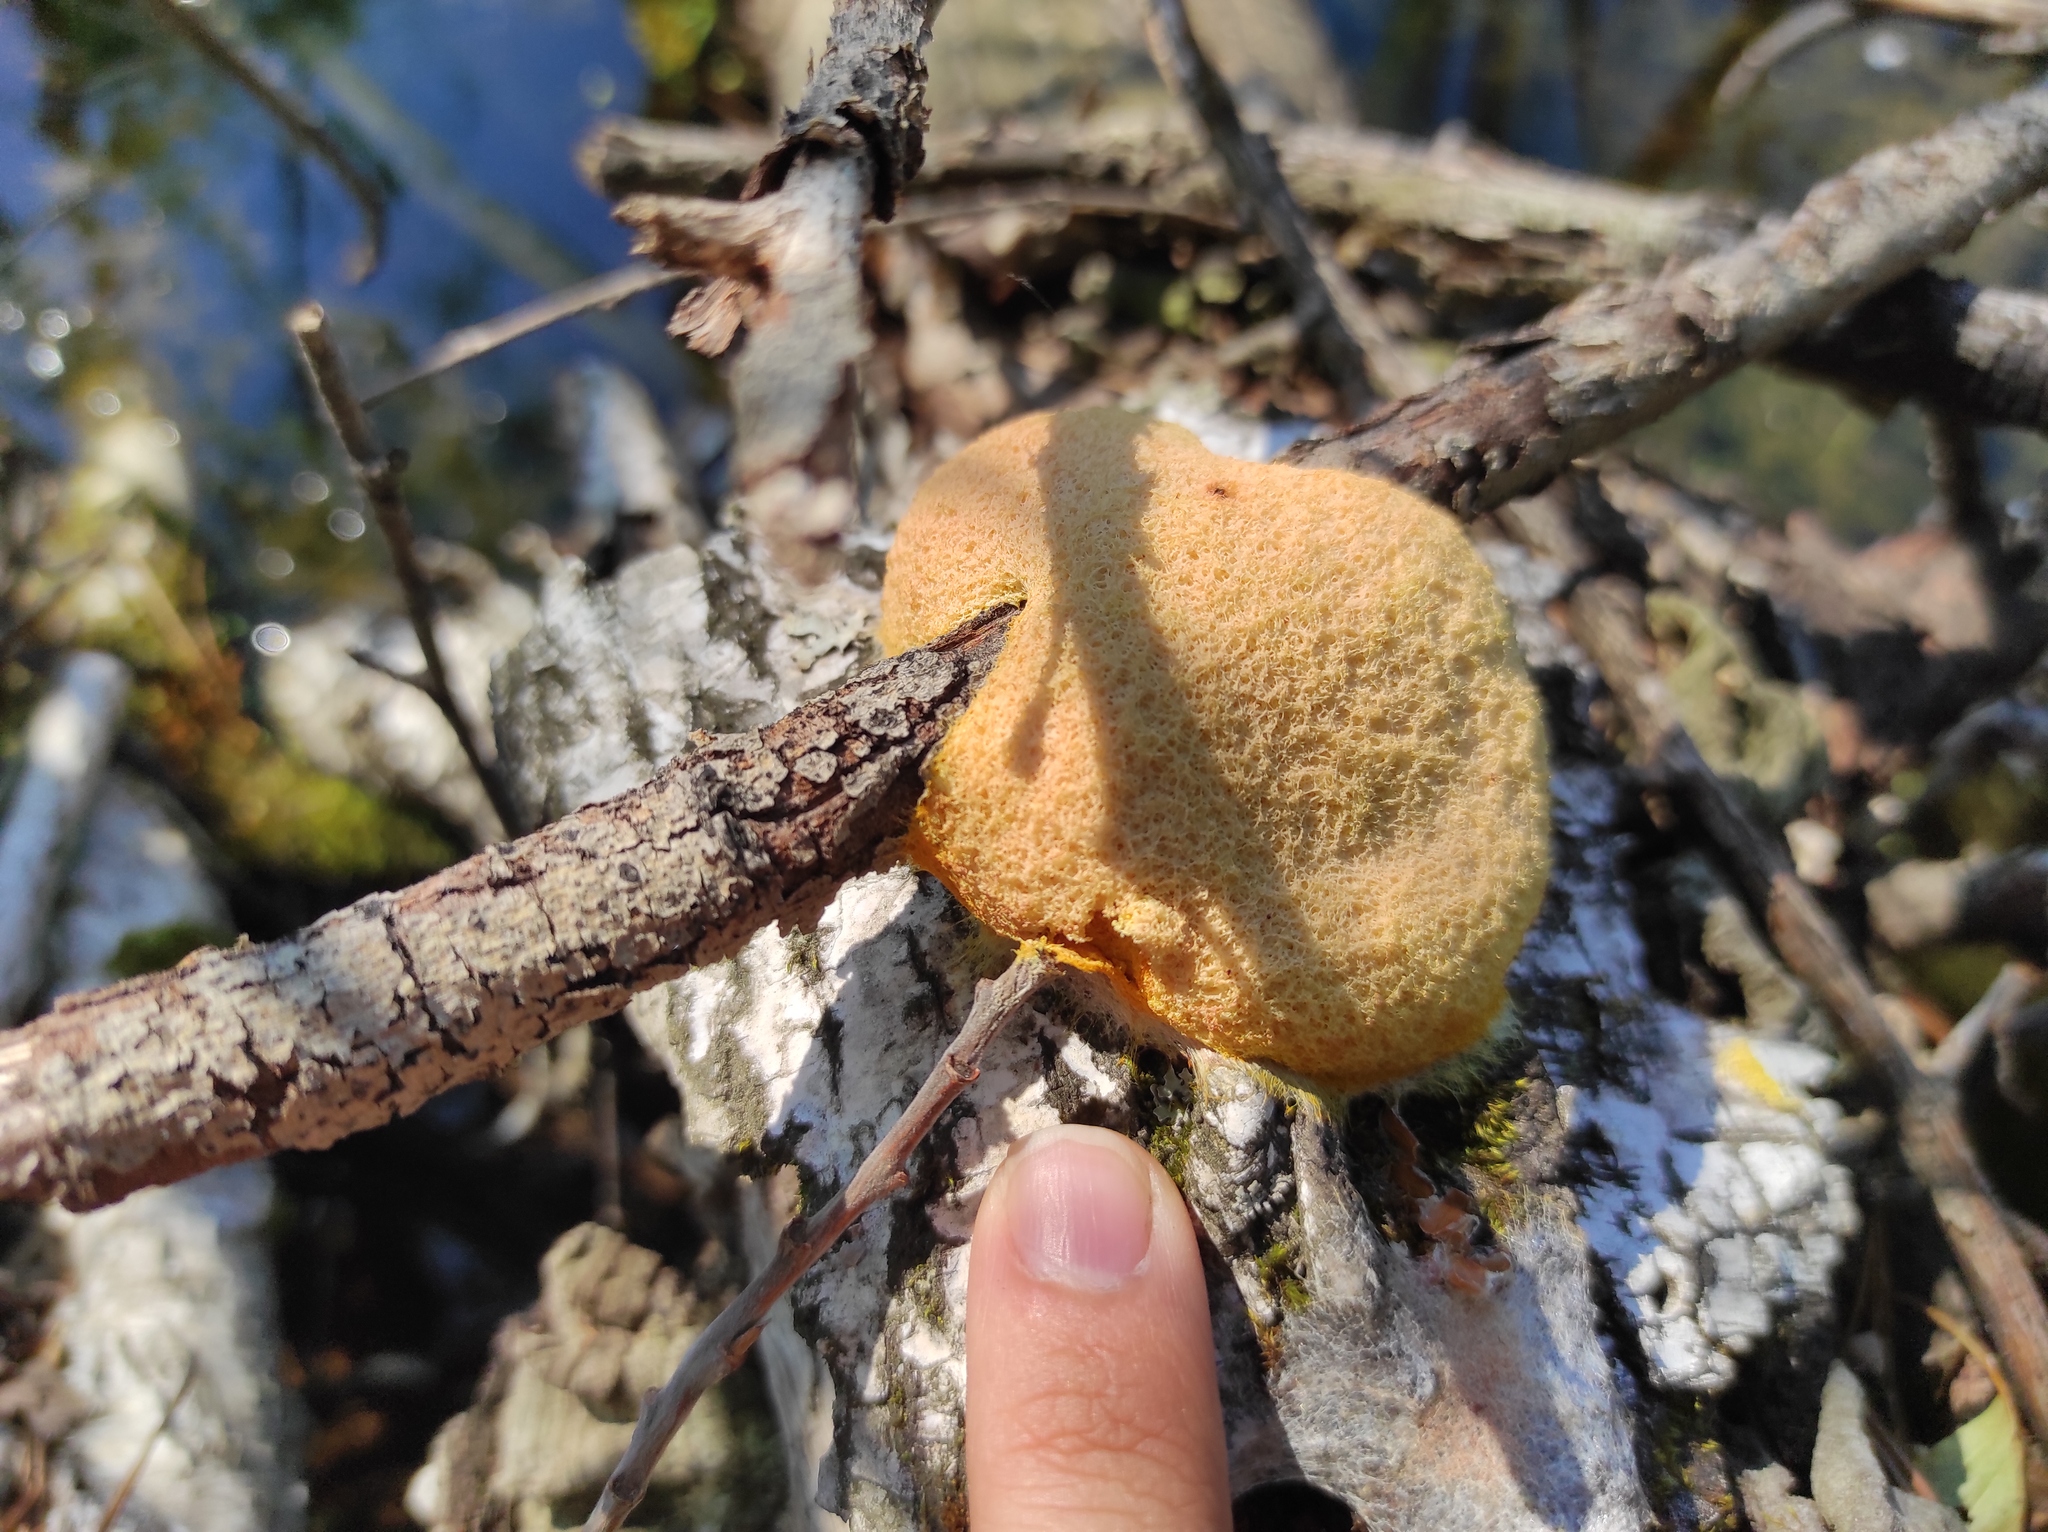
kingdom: Protozoa
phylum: Mycetozoa
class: Myxomycetes
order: Physarales
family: Physaraceae
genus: Fuligo
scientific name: Fuligo septica
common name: Dog vomit slime mold
